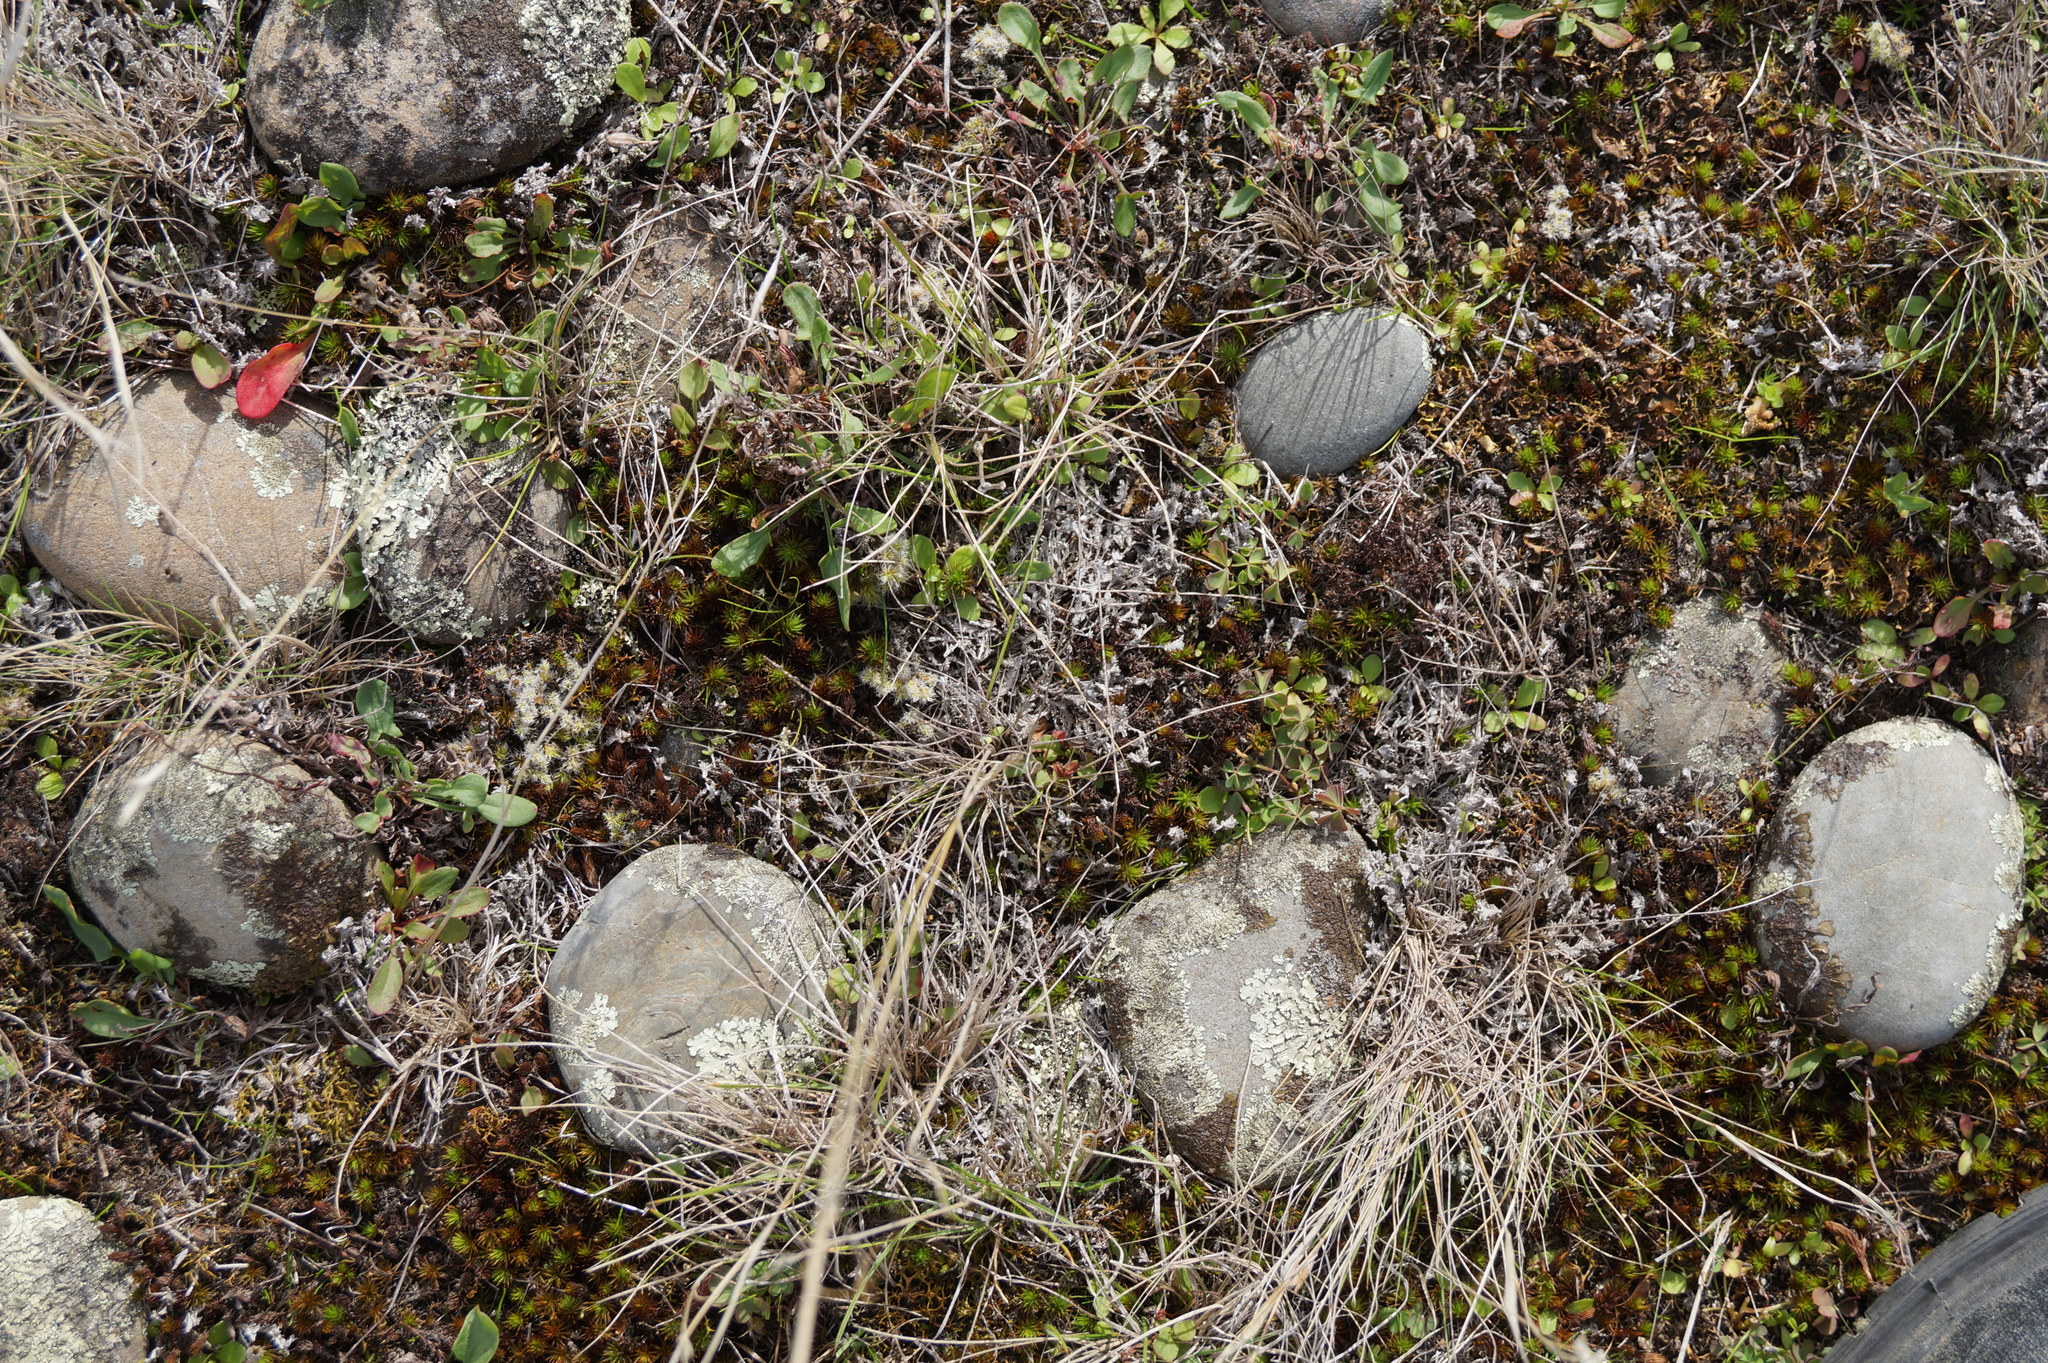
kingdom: Plantae
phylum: Tracheophyta
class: Magnoliopsida
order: Asterales
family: Asteraceae
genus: Raoulia
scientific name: Raoulia monroi
